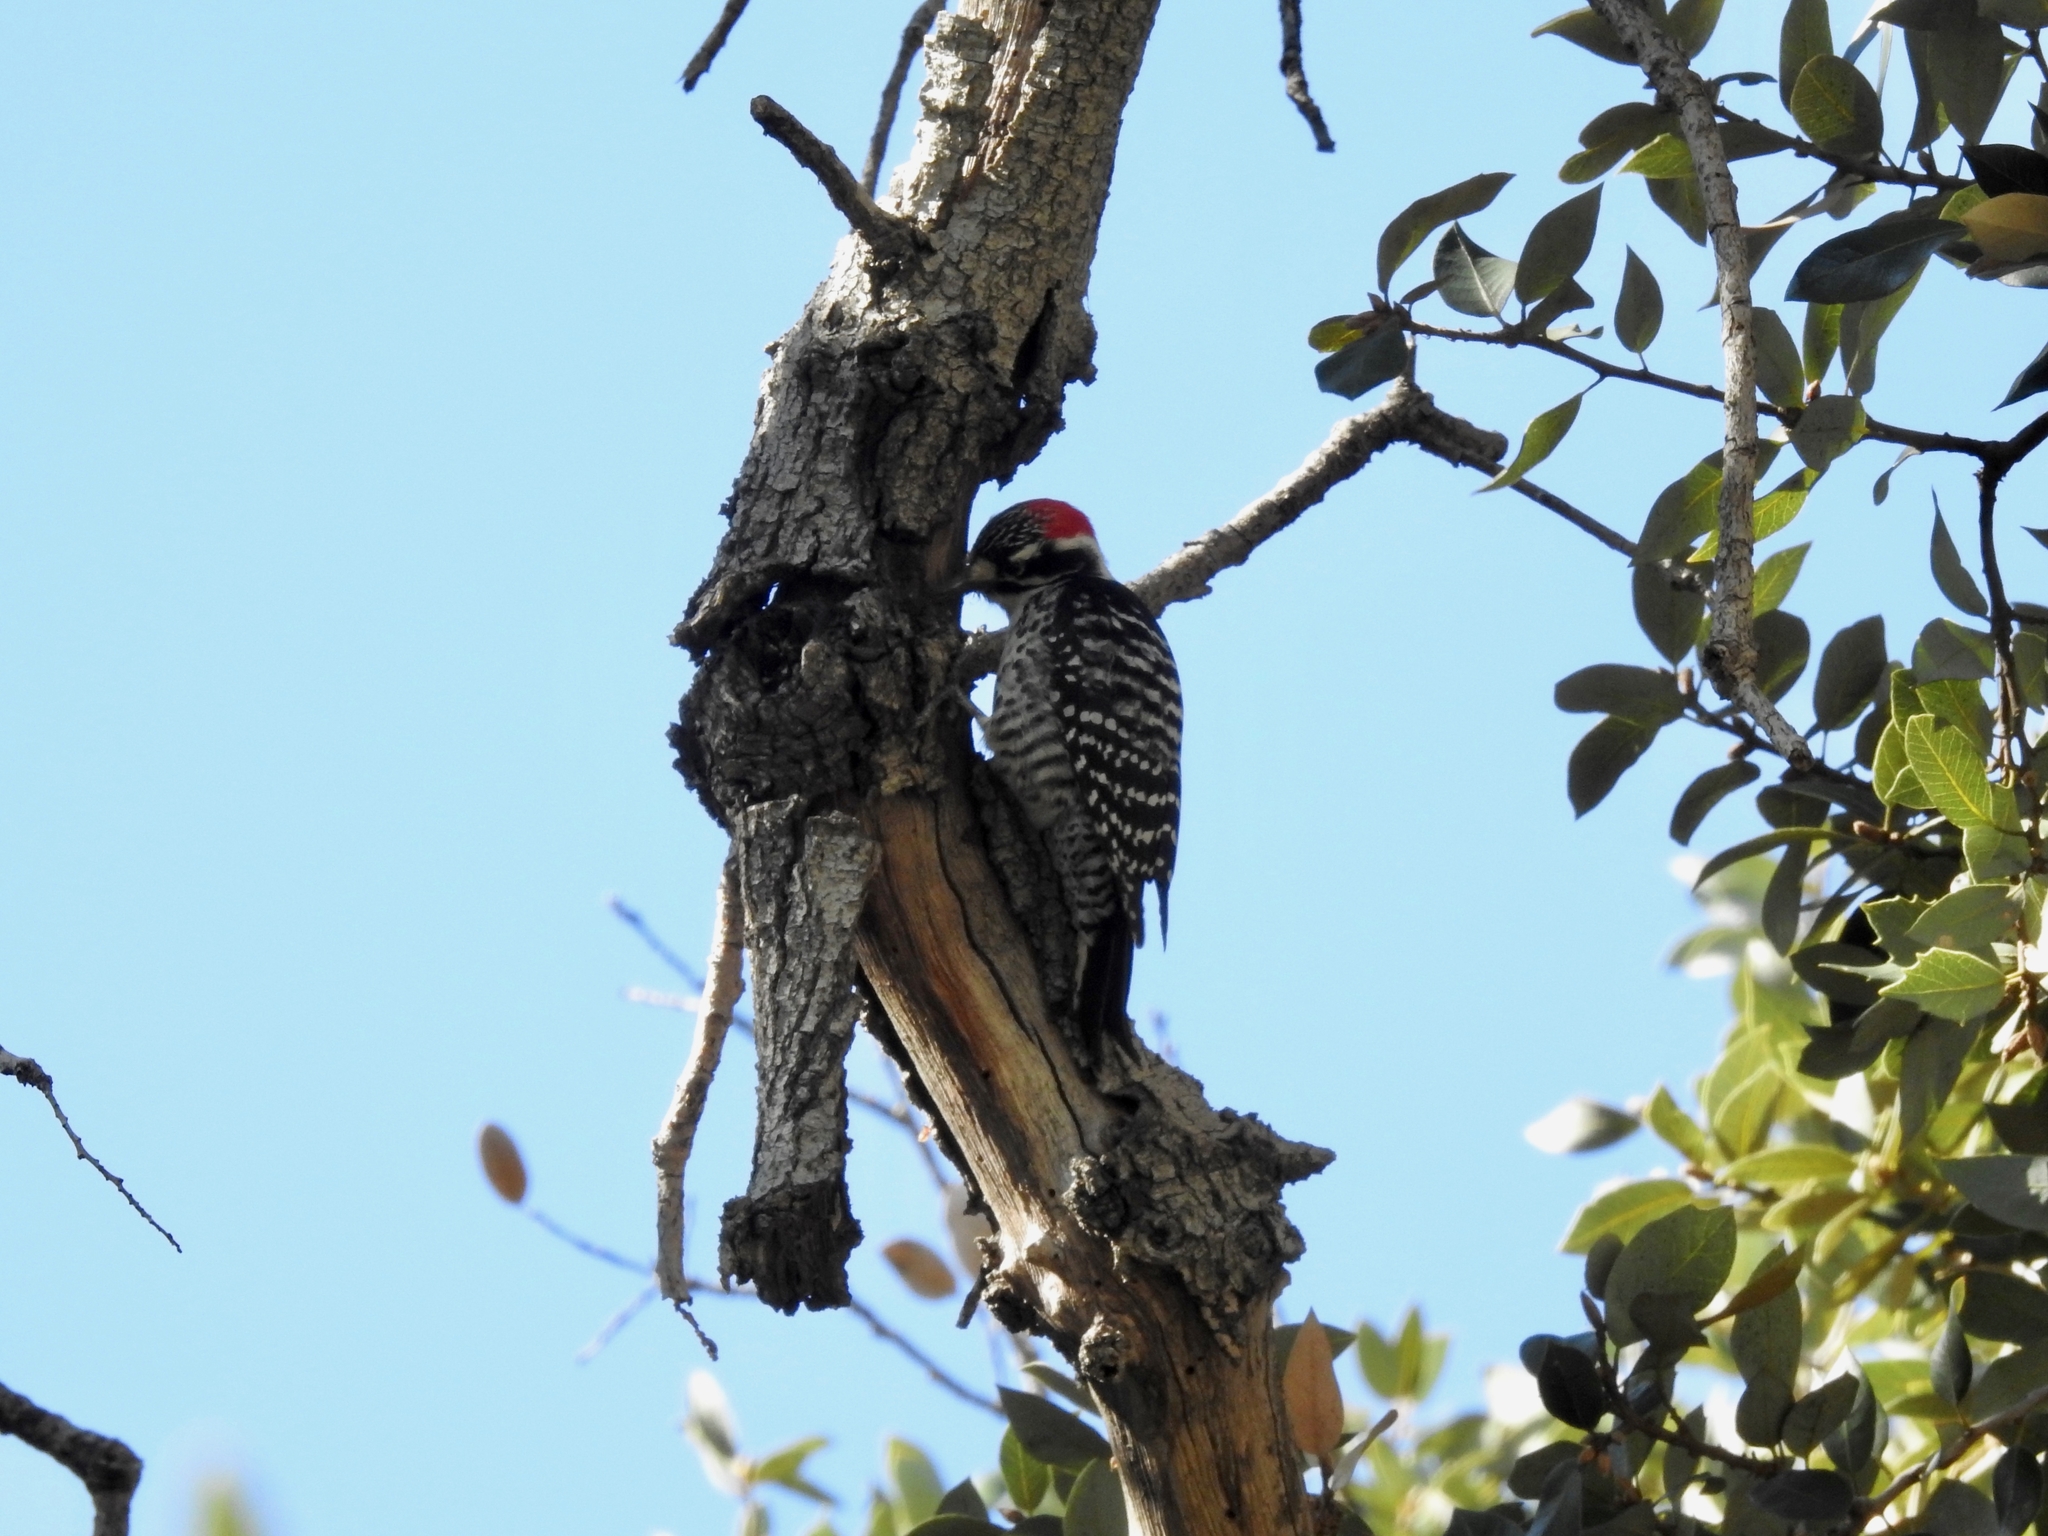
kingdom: Animalia
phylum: Chordata
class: Aves
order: Piciformes
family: Picidae
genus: Dryobates
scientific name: Dryobates nuttallii
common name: Nuttall's woodpecker
